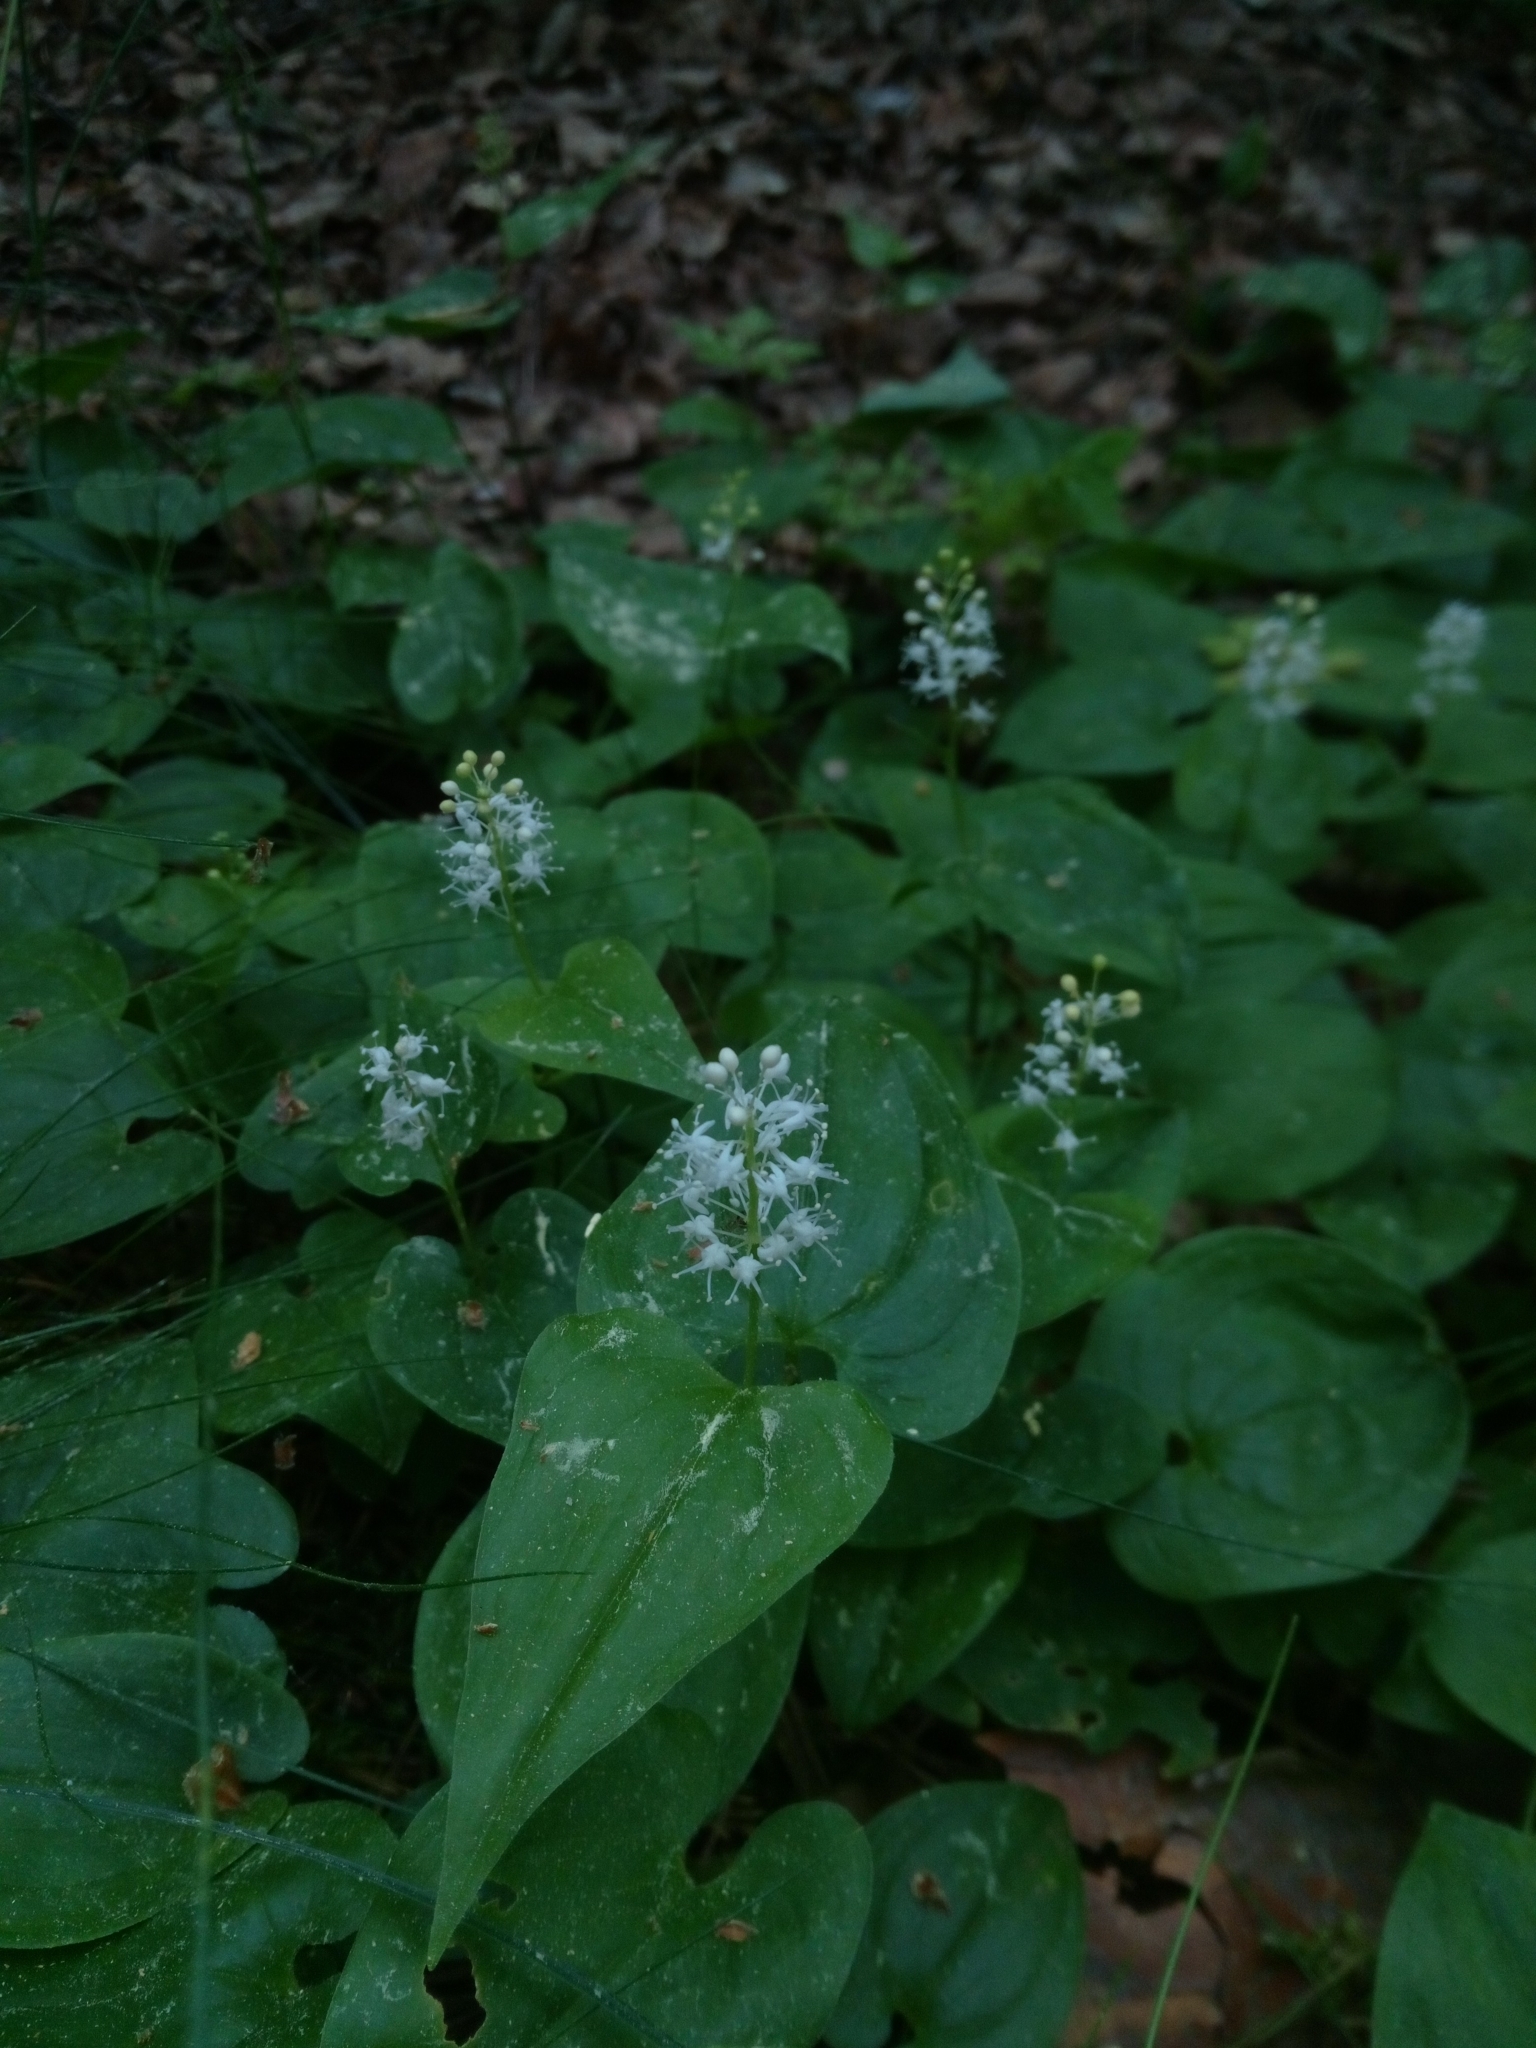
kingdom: Plantae
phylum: Tracheophyta
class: Liliopsida
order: Asparagales
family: Asparagaceae
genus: Maianthemum
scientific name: Maianthemum bifolium
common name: May lily
